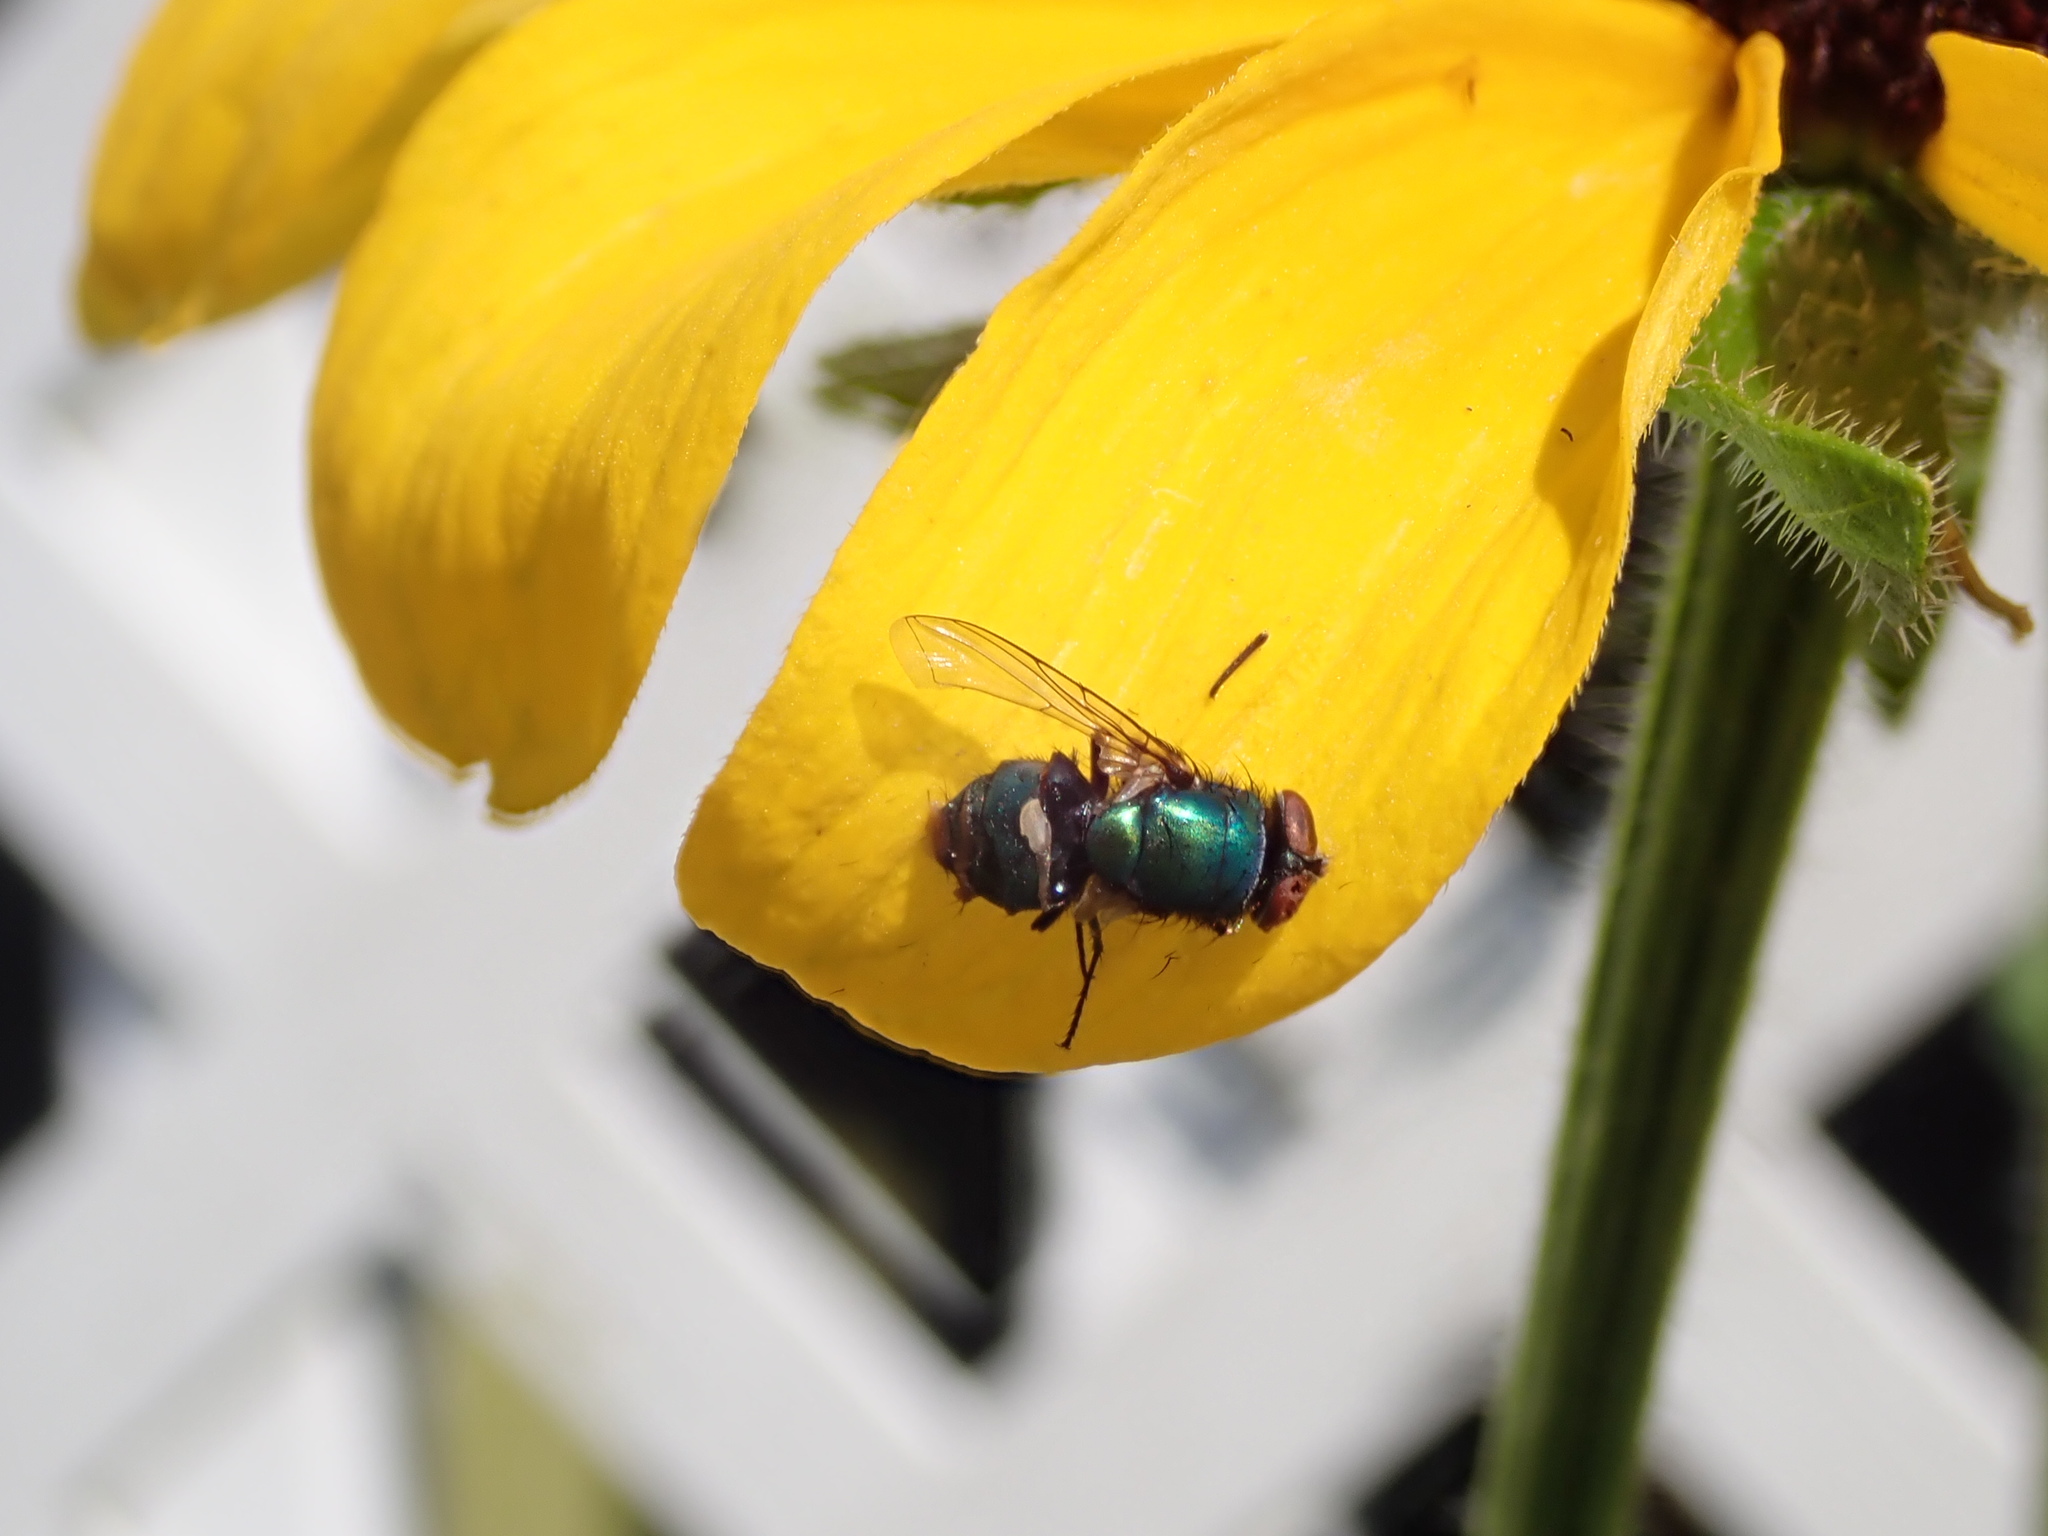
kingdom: Animalia
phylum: Arthropoda
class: Insecta
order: Diptera
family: Calliphoridae
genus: Lucilia
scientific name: Lucilia sericata
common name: Blow fly
